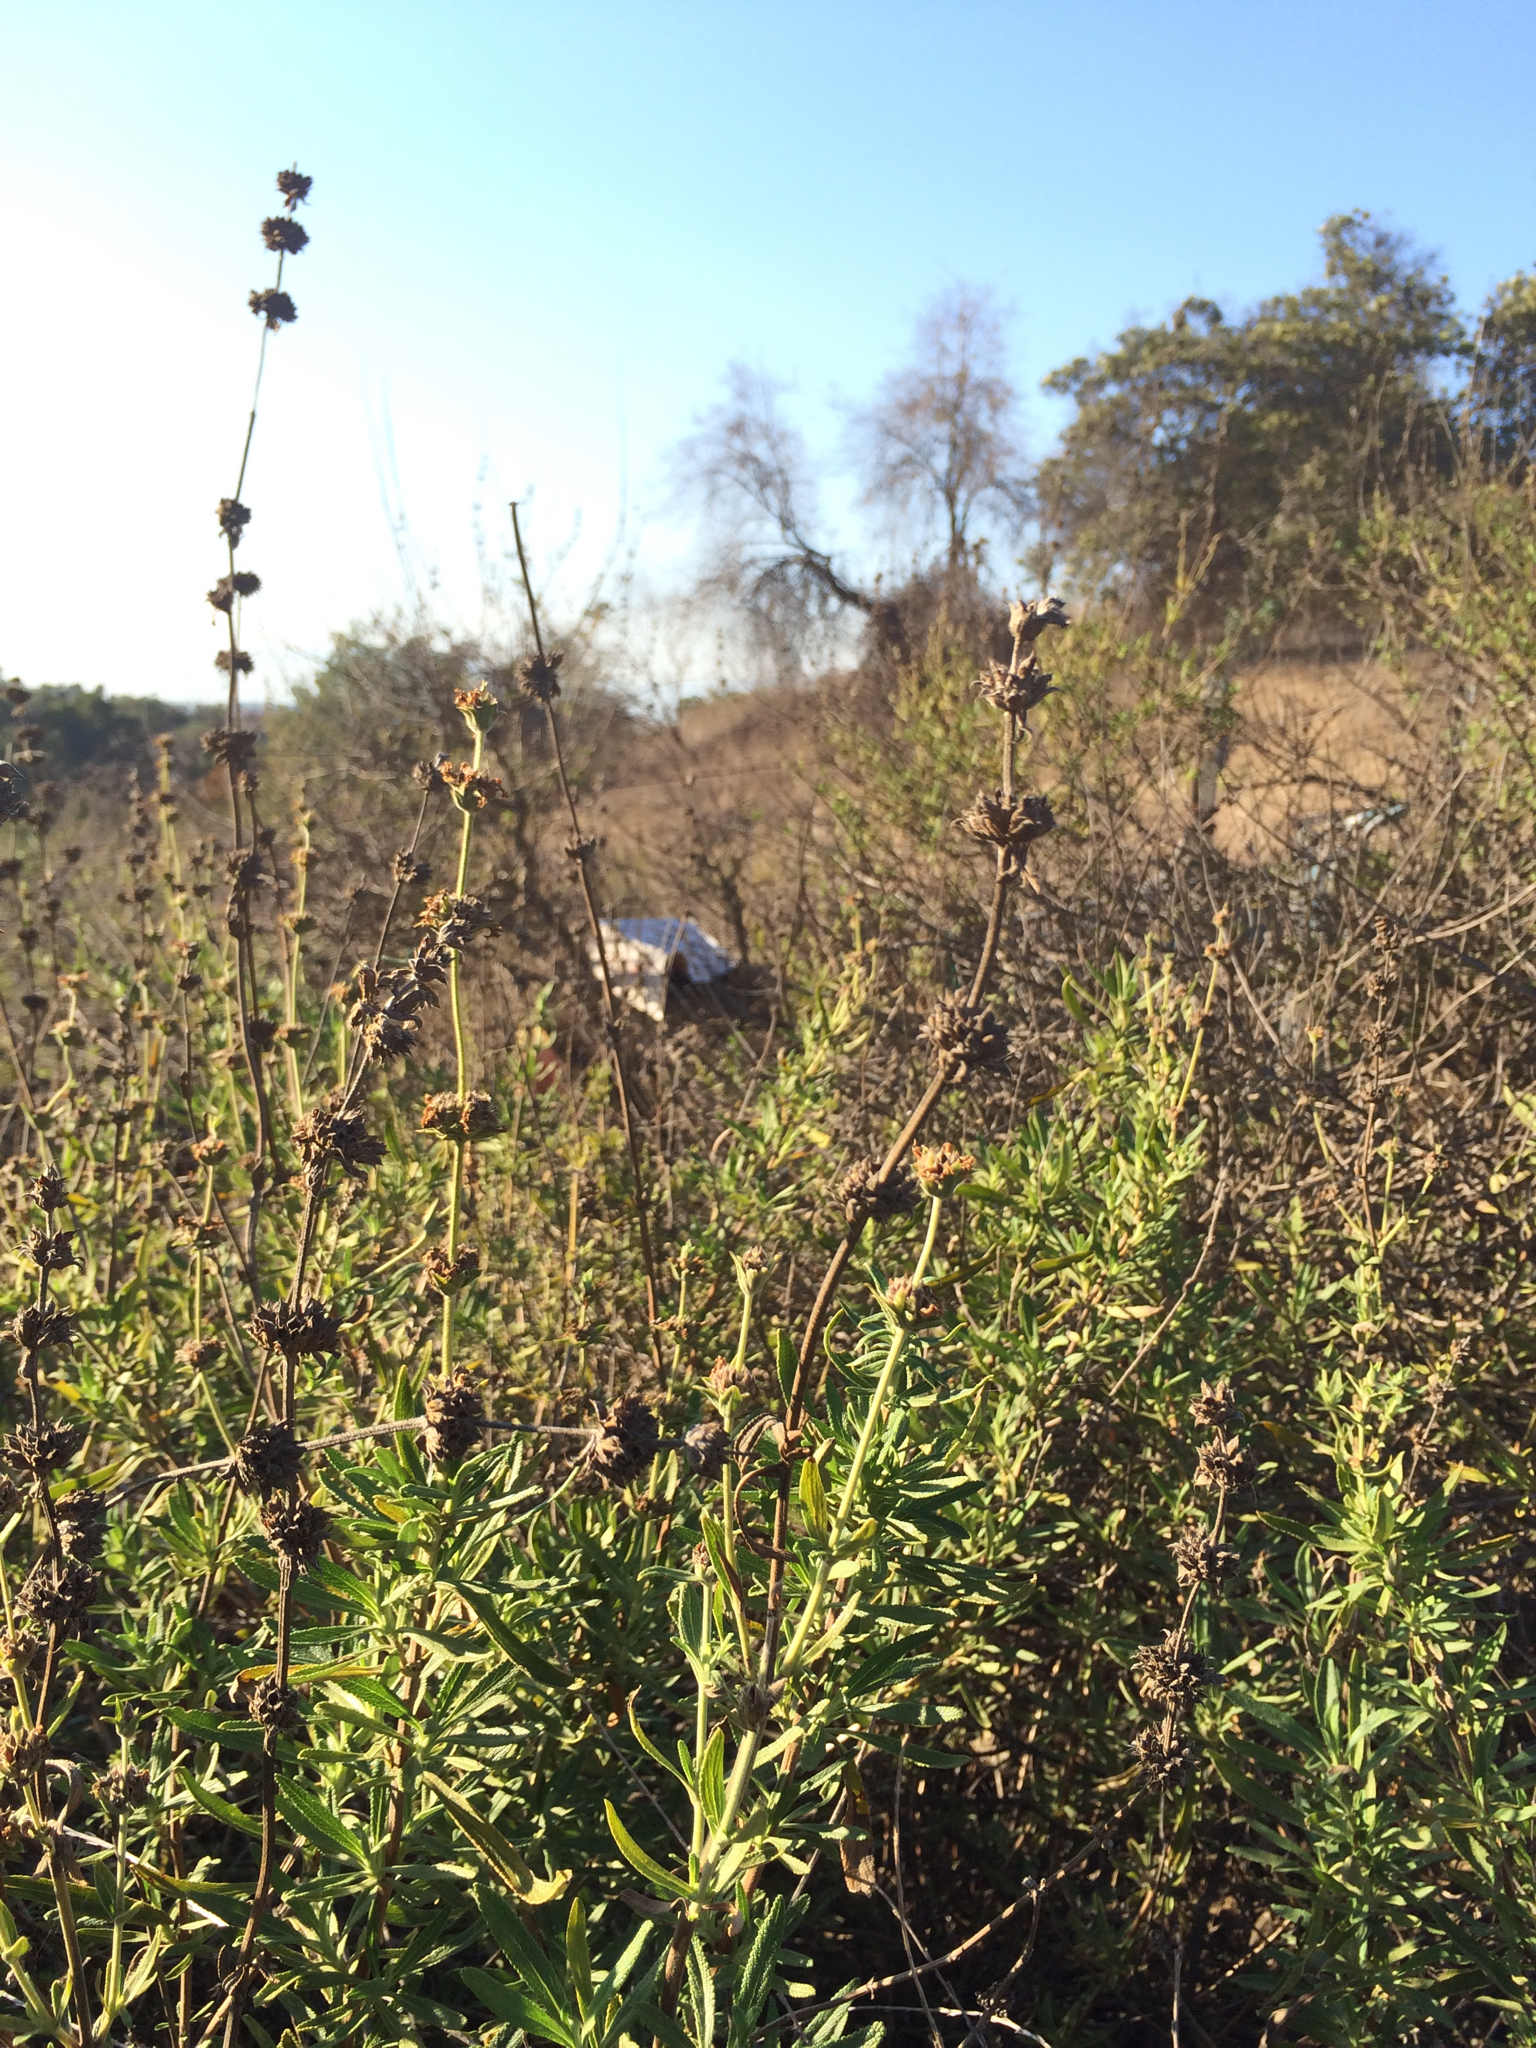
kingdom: Plantae
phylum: Tracheophyta
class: Magnoliopsida
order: Lamiales
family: Lamiaceae
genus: Salvia
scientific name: Salvia mellifera
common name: Black sage
